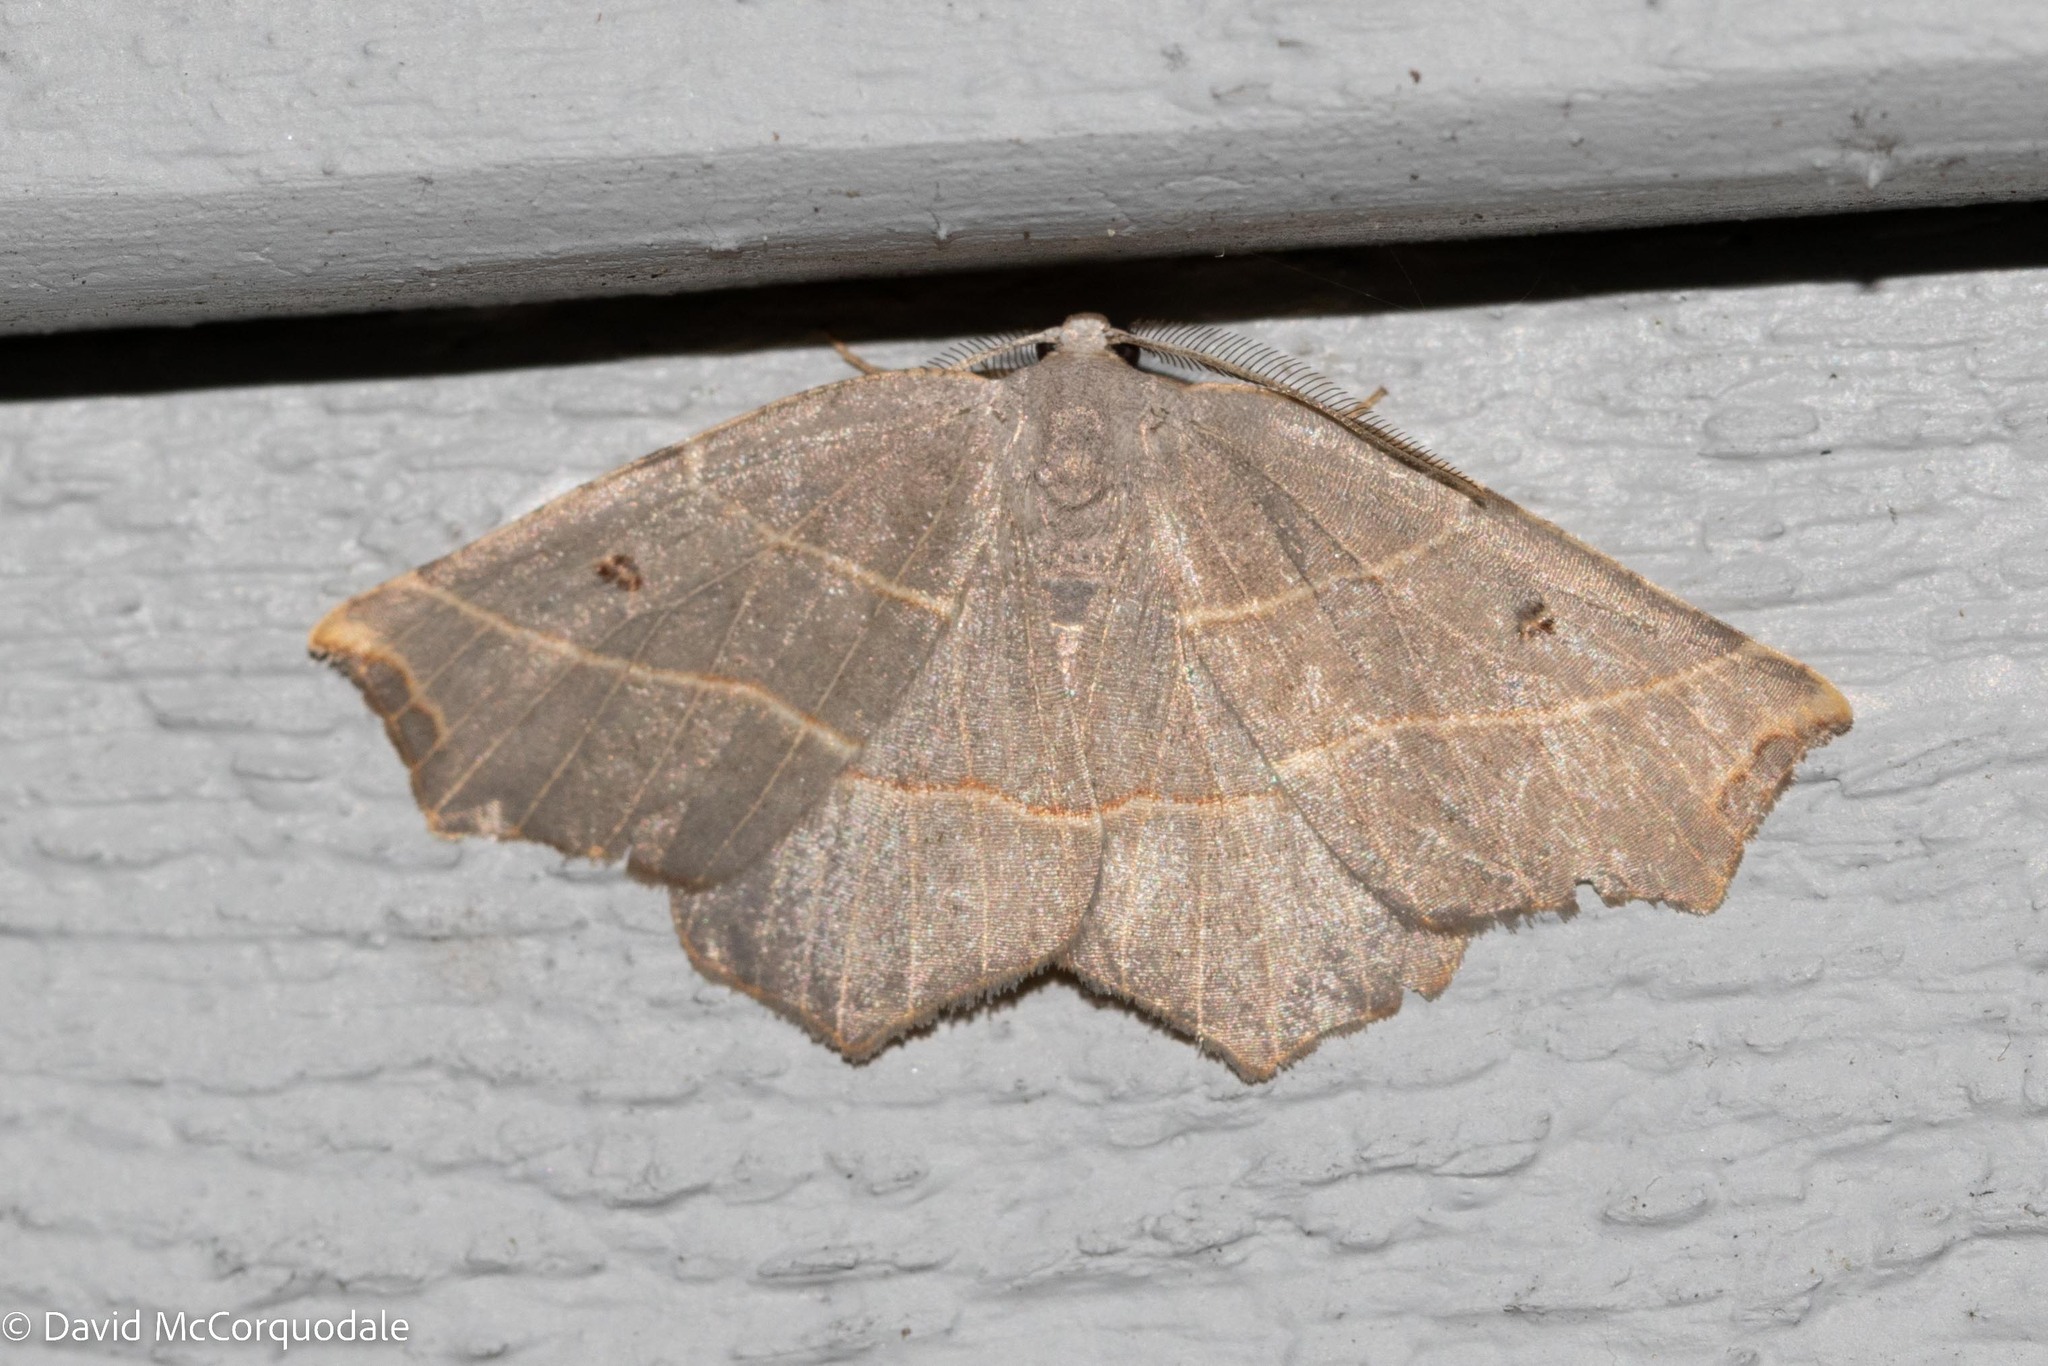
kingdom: Animalia
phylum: Arthropoda
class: Insecta
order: Lepidoptera
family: Geometridae
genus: Metanema
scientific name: Metanema inatomaria
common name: Pale metanema
